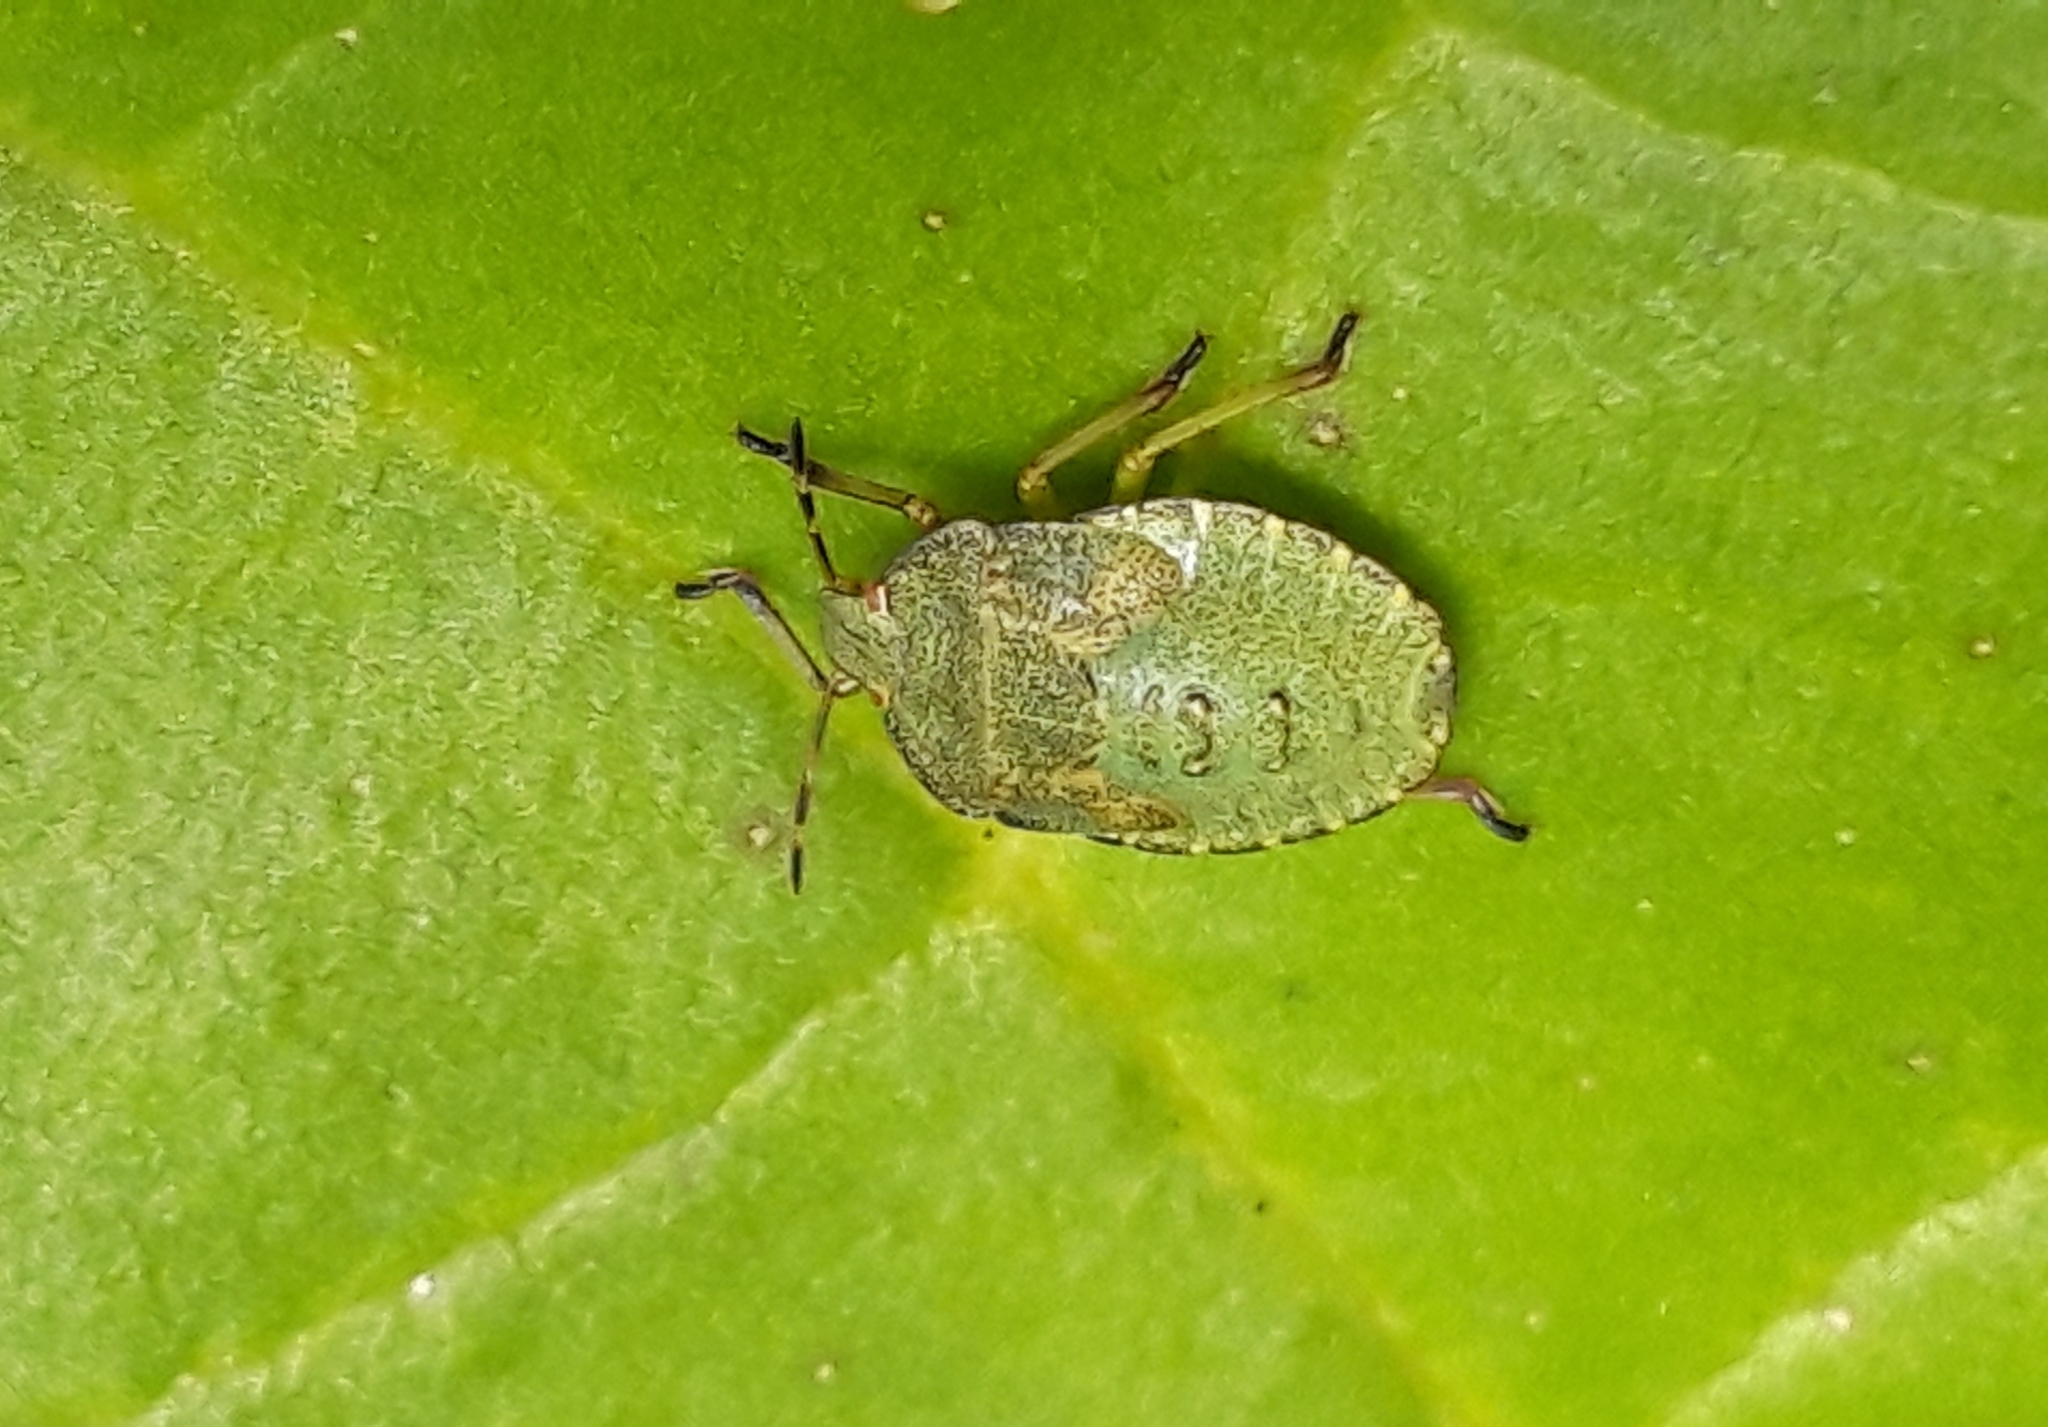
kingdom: Animalia
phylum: Arthropoda
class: Insecta
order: Hemiptera
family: Pentatomidae
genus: Palomena
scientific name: Palomena prasina
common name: Green shieldbug
